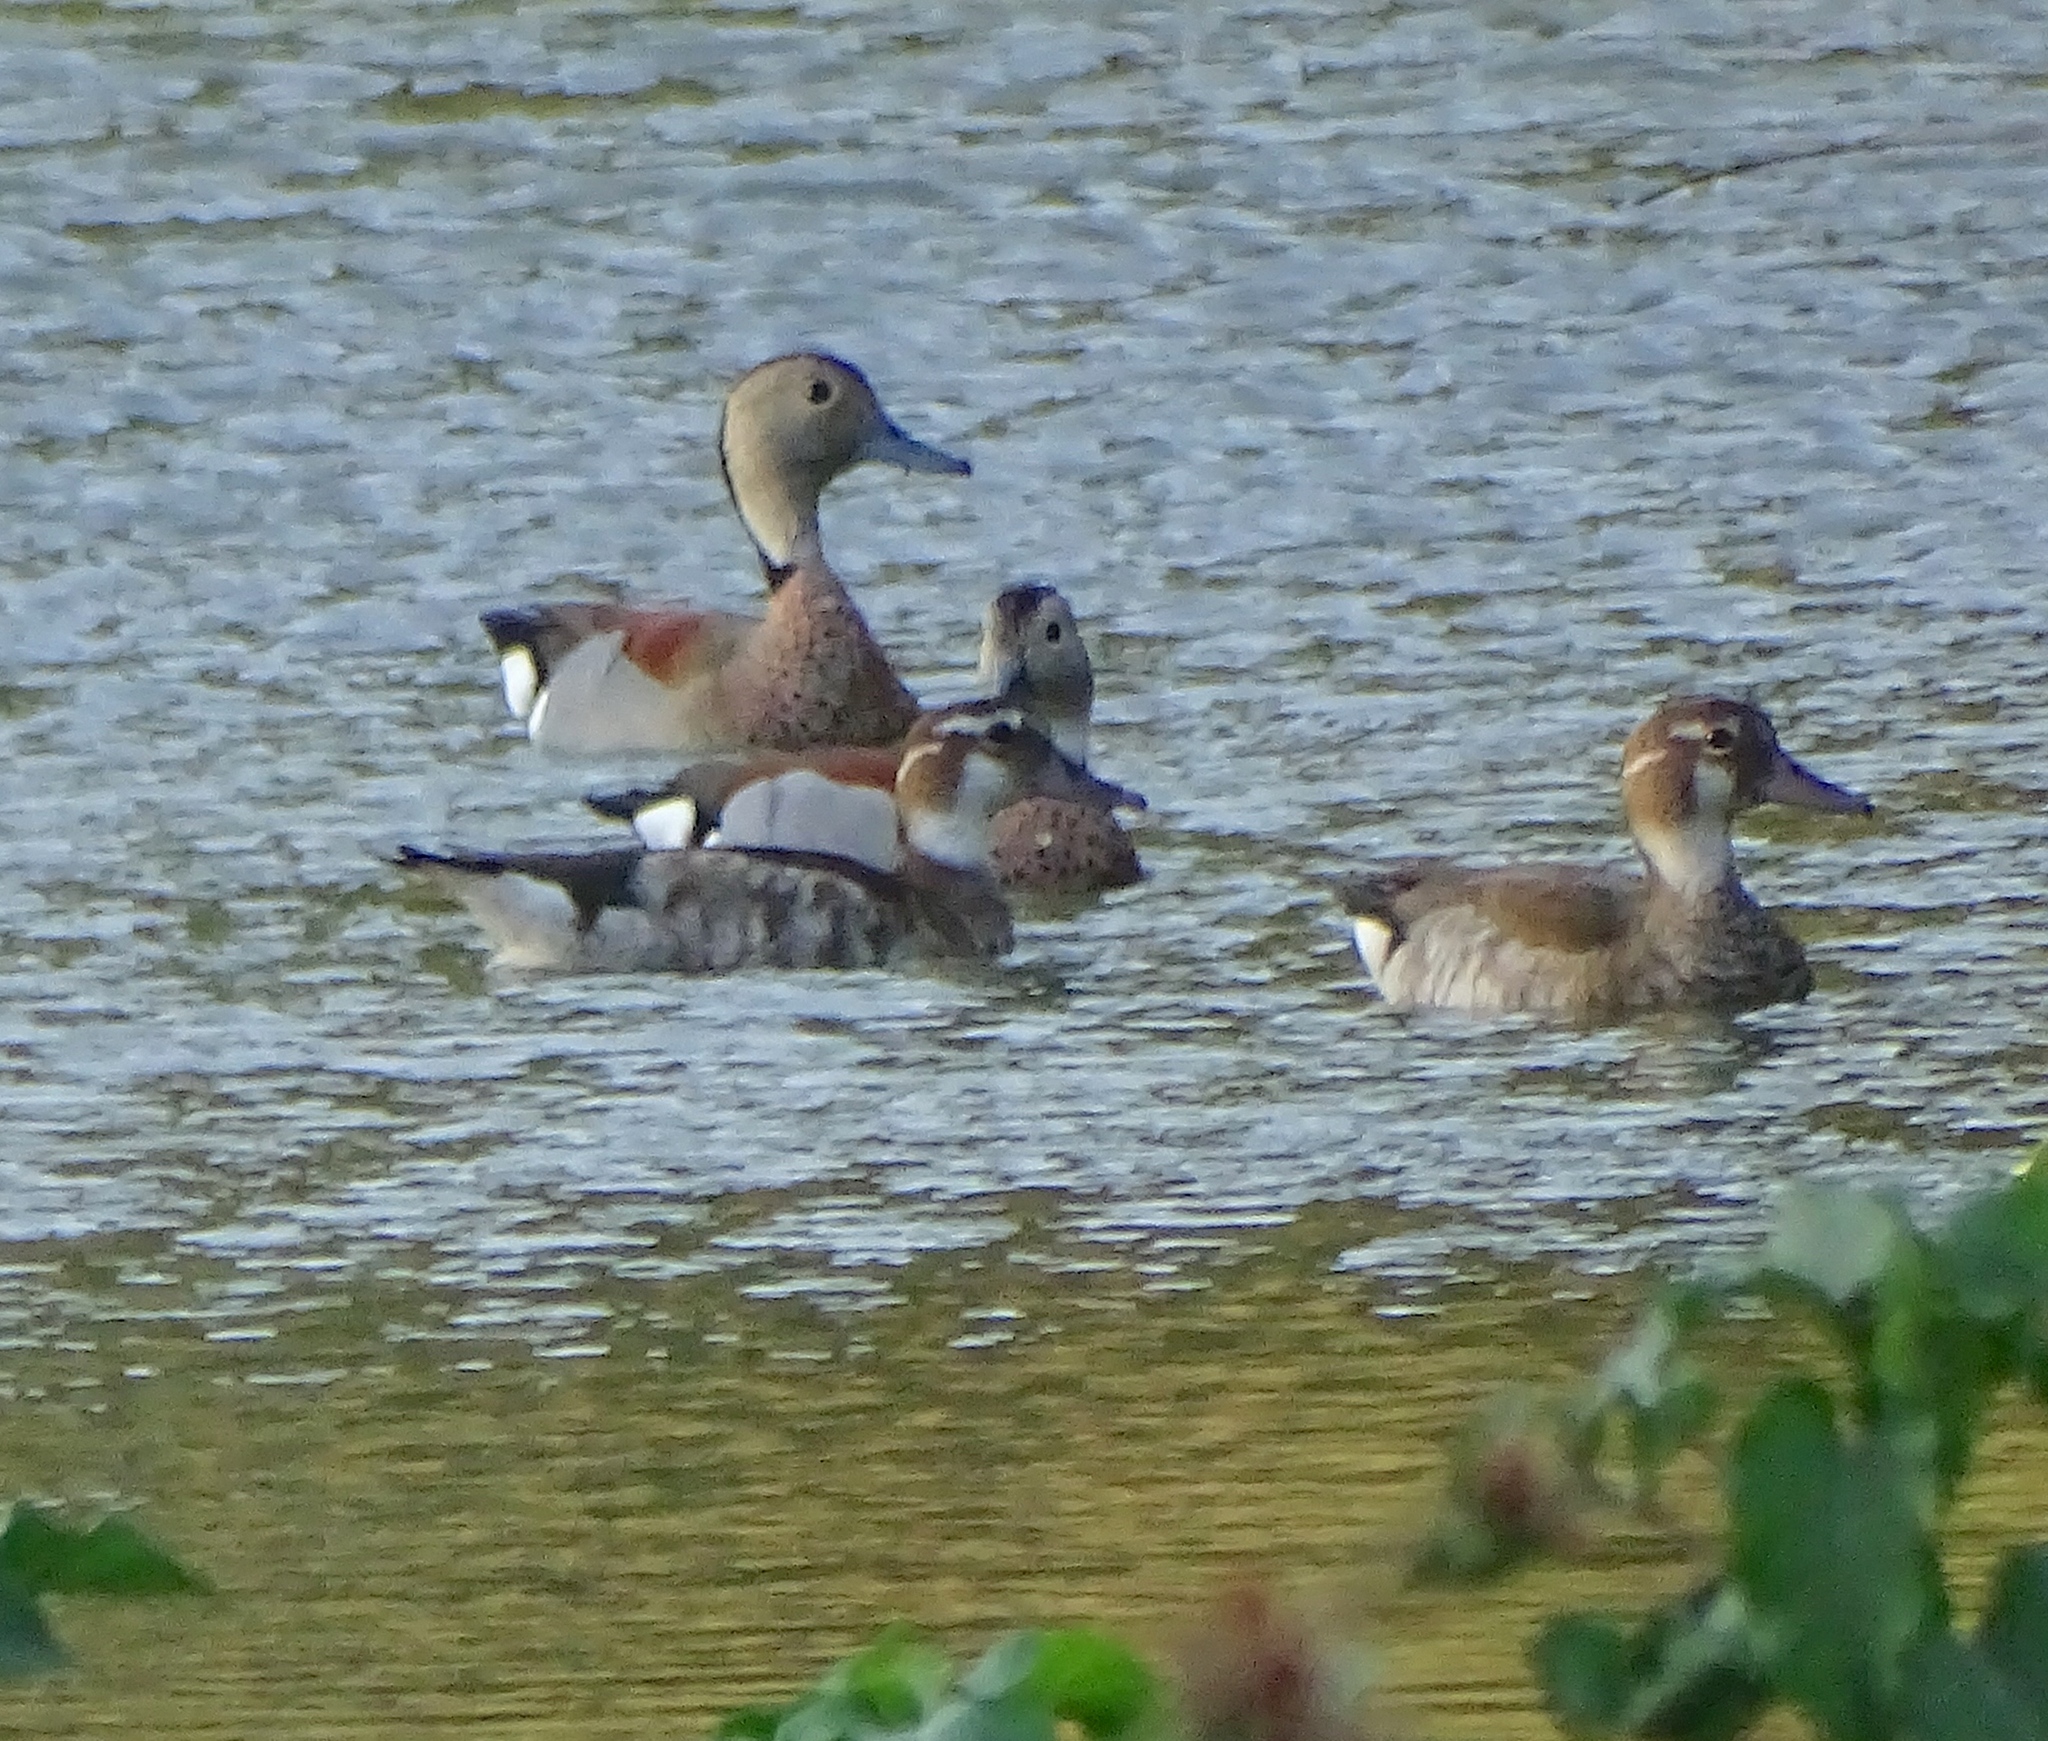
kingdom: Animalia
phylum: Chordata
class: Aves
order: Anseriformes
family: Anatidae
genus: Callonetta
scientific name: Callonetta leucophrys
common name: Ringed teal
